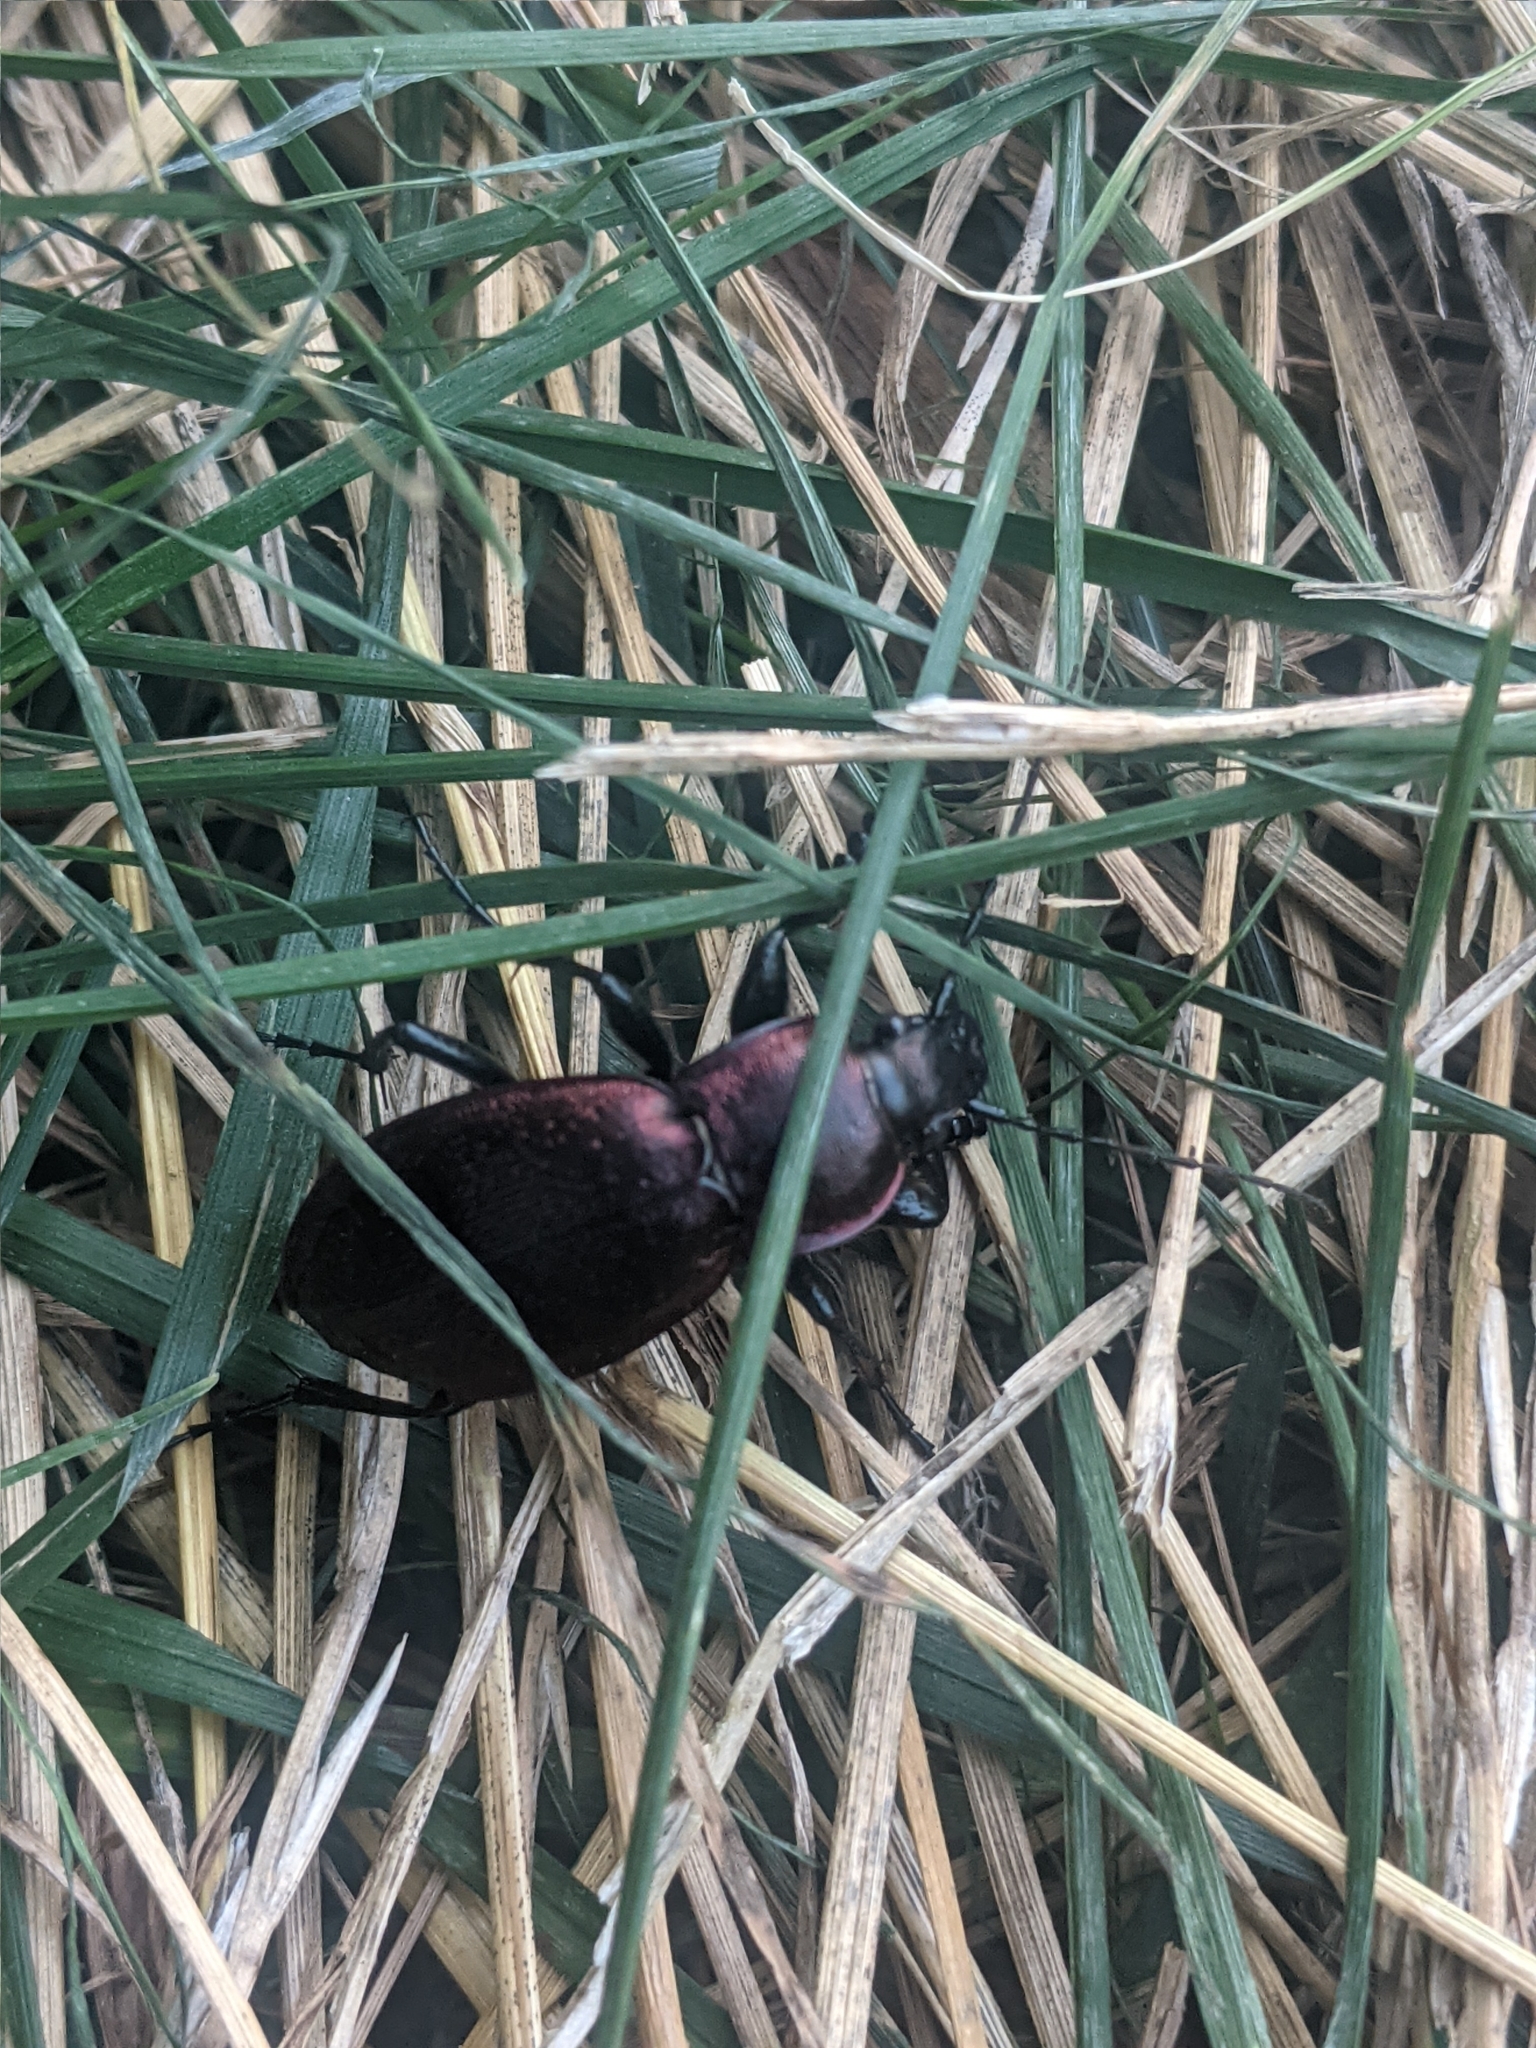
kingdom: Animalia
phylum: Arthropoda
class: Insecta
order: Coleoptera
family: Carabidae
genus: Carabus
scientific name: Carabus excellens
